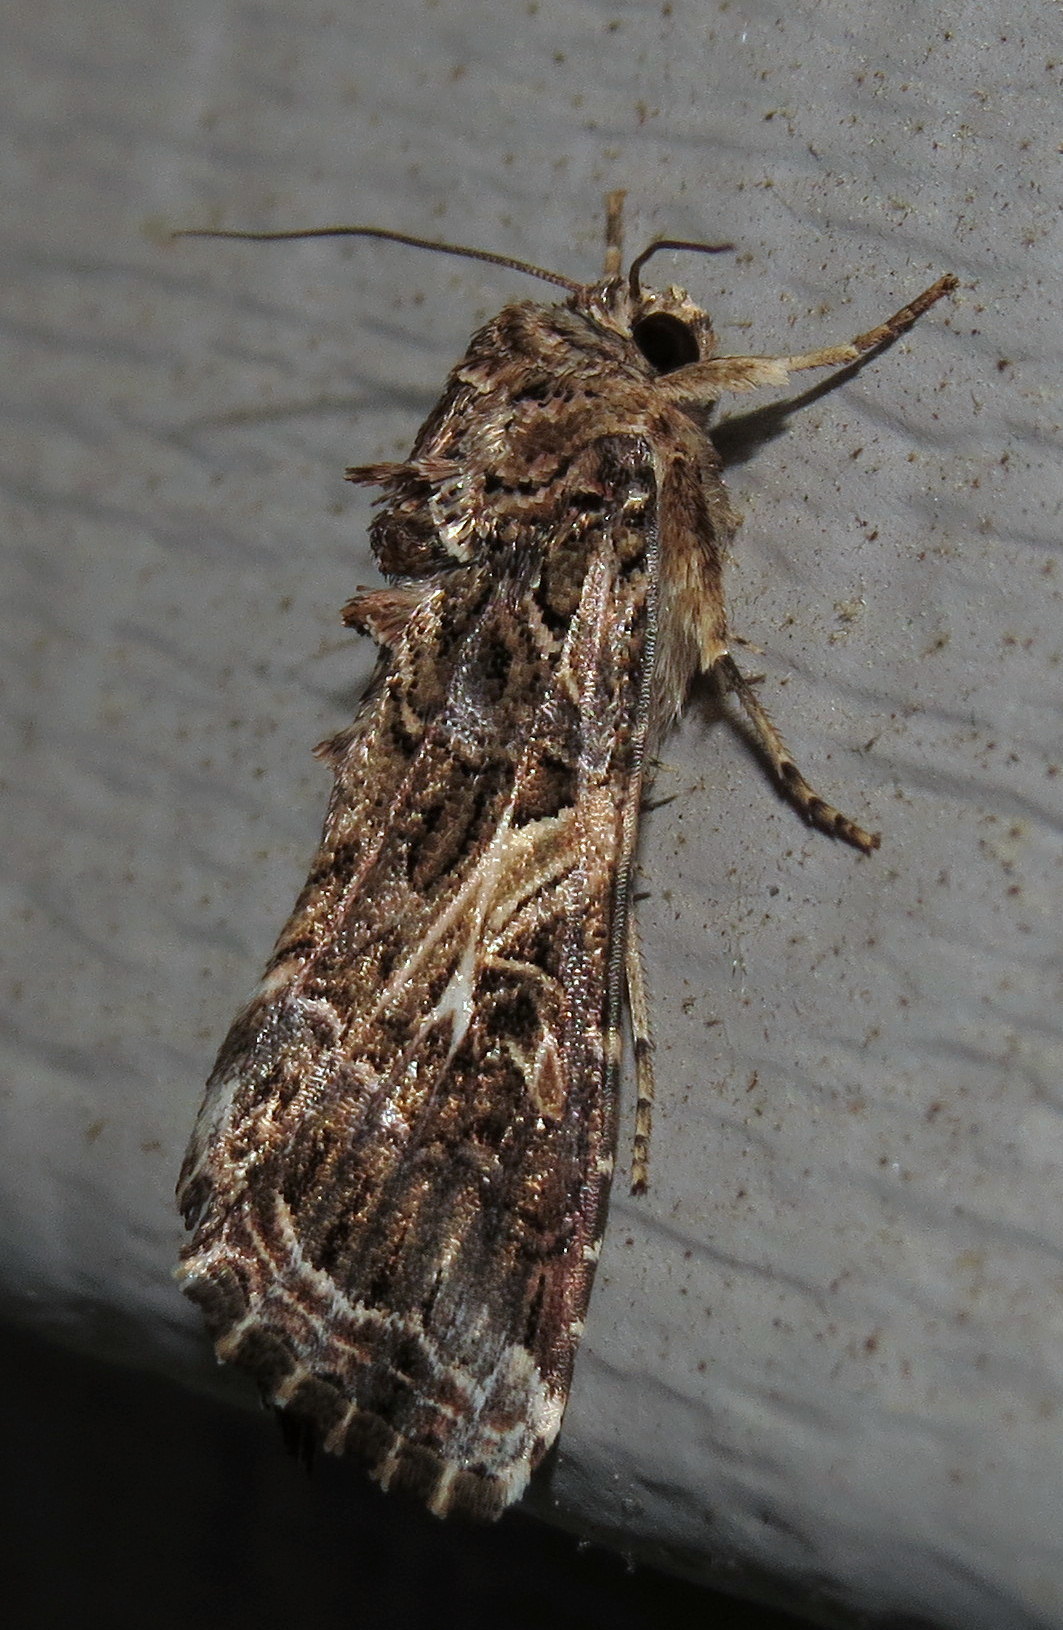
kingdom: Animalia
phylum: Arthropoda
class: Insecta
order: Lepidoptera
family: Noctuidae
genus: Spodoptera
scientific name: Spodoptera ornithogalli
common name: Yellow-striped armyworm
